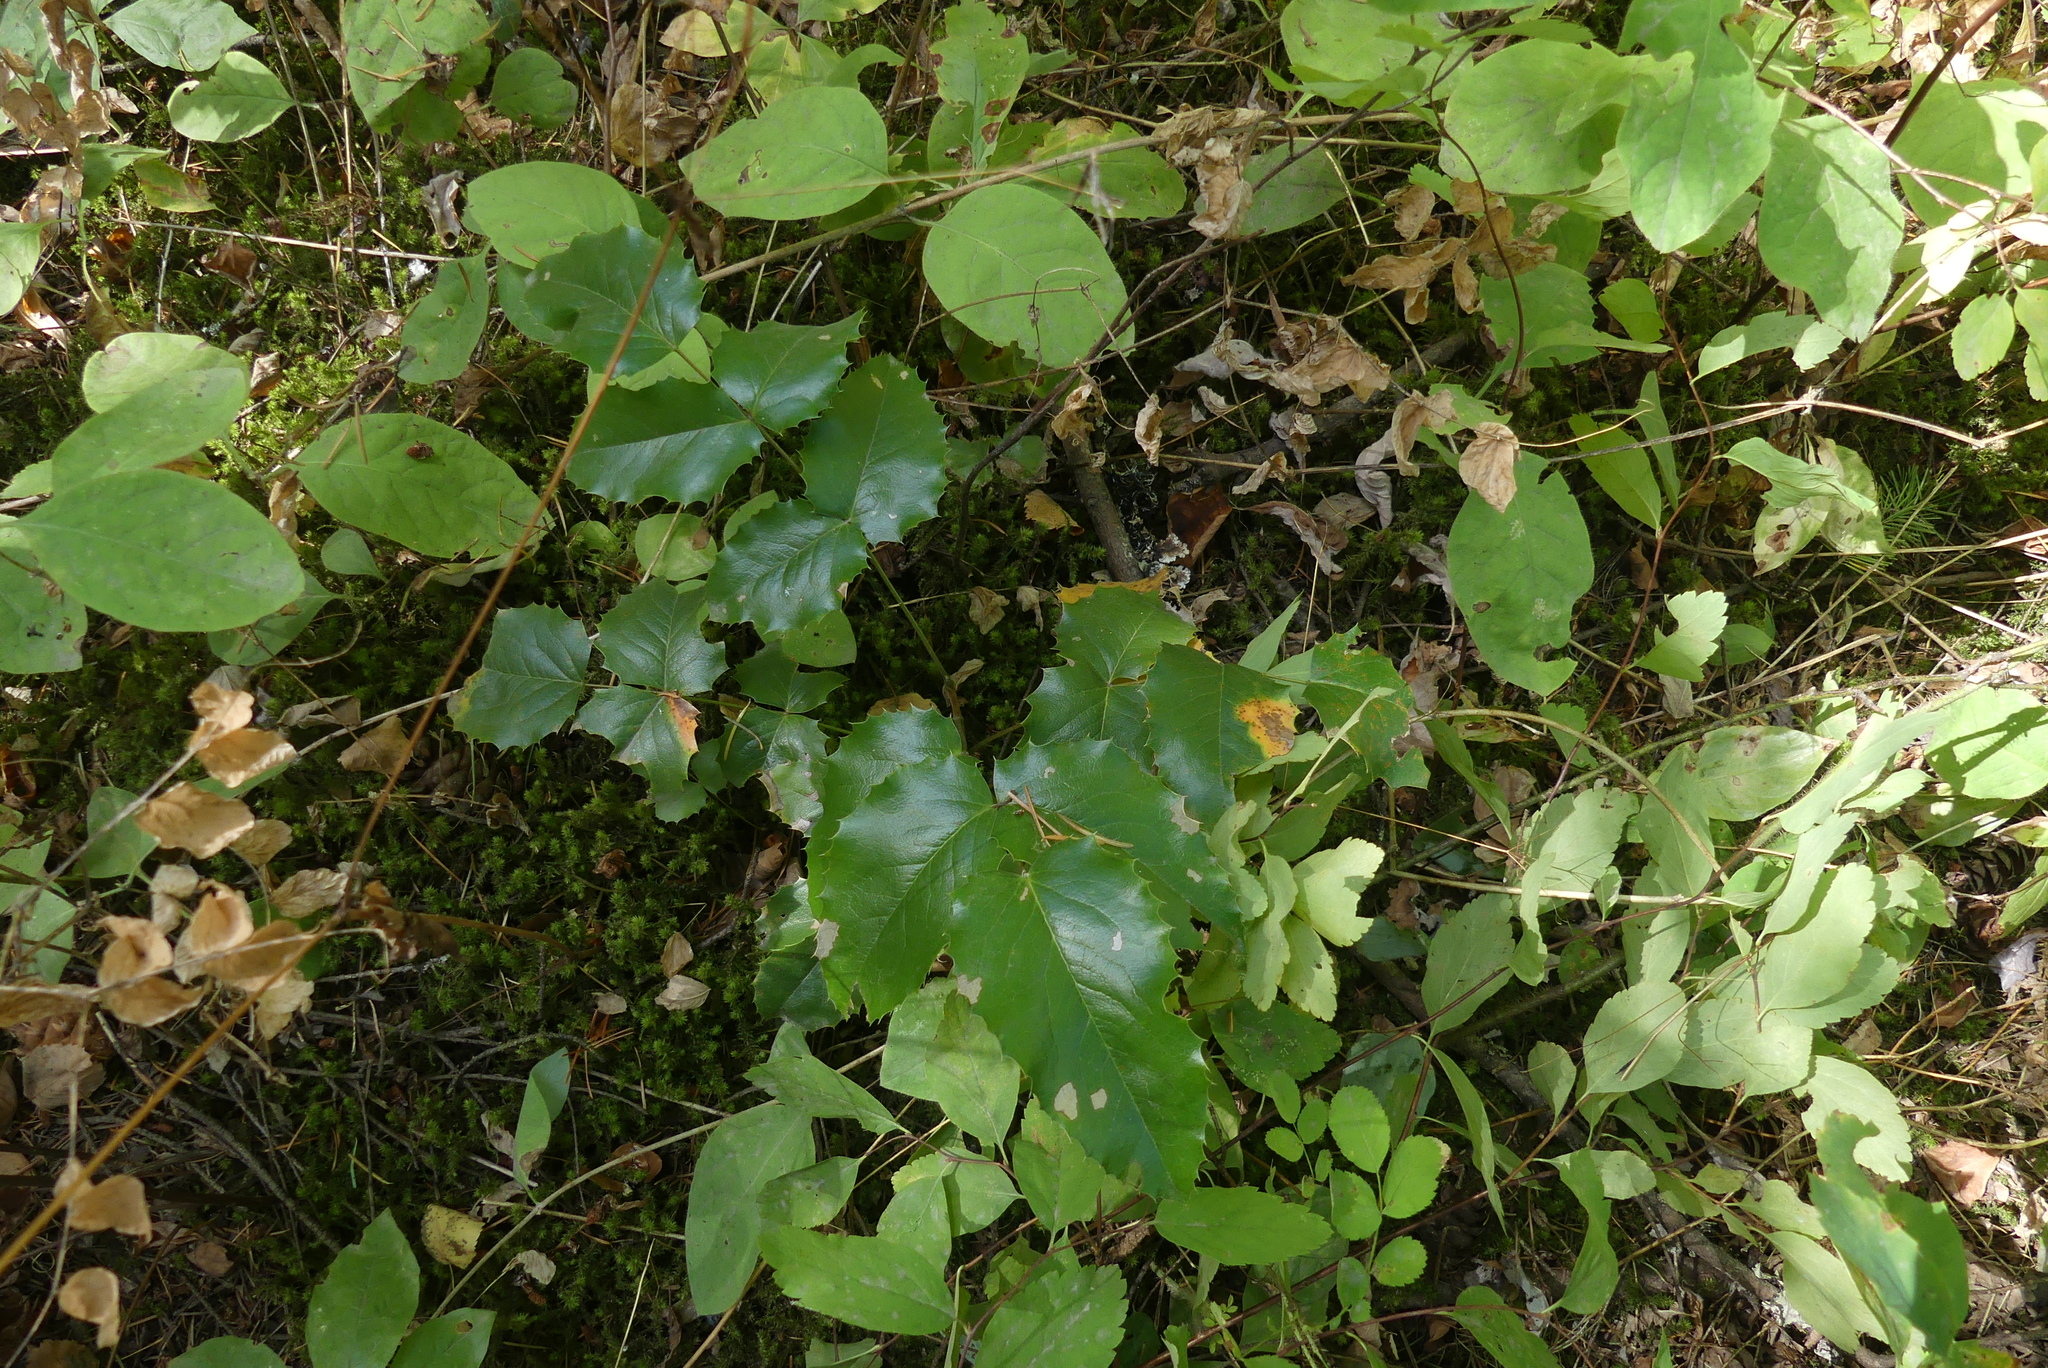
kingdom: Plantae
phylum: Tracheophyta
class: Magnoliopsida
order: Ranunculales
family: Berberidaceae
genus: Mahonia
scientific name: Mahonia aquifolium
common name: Oregon-grape
